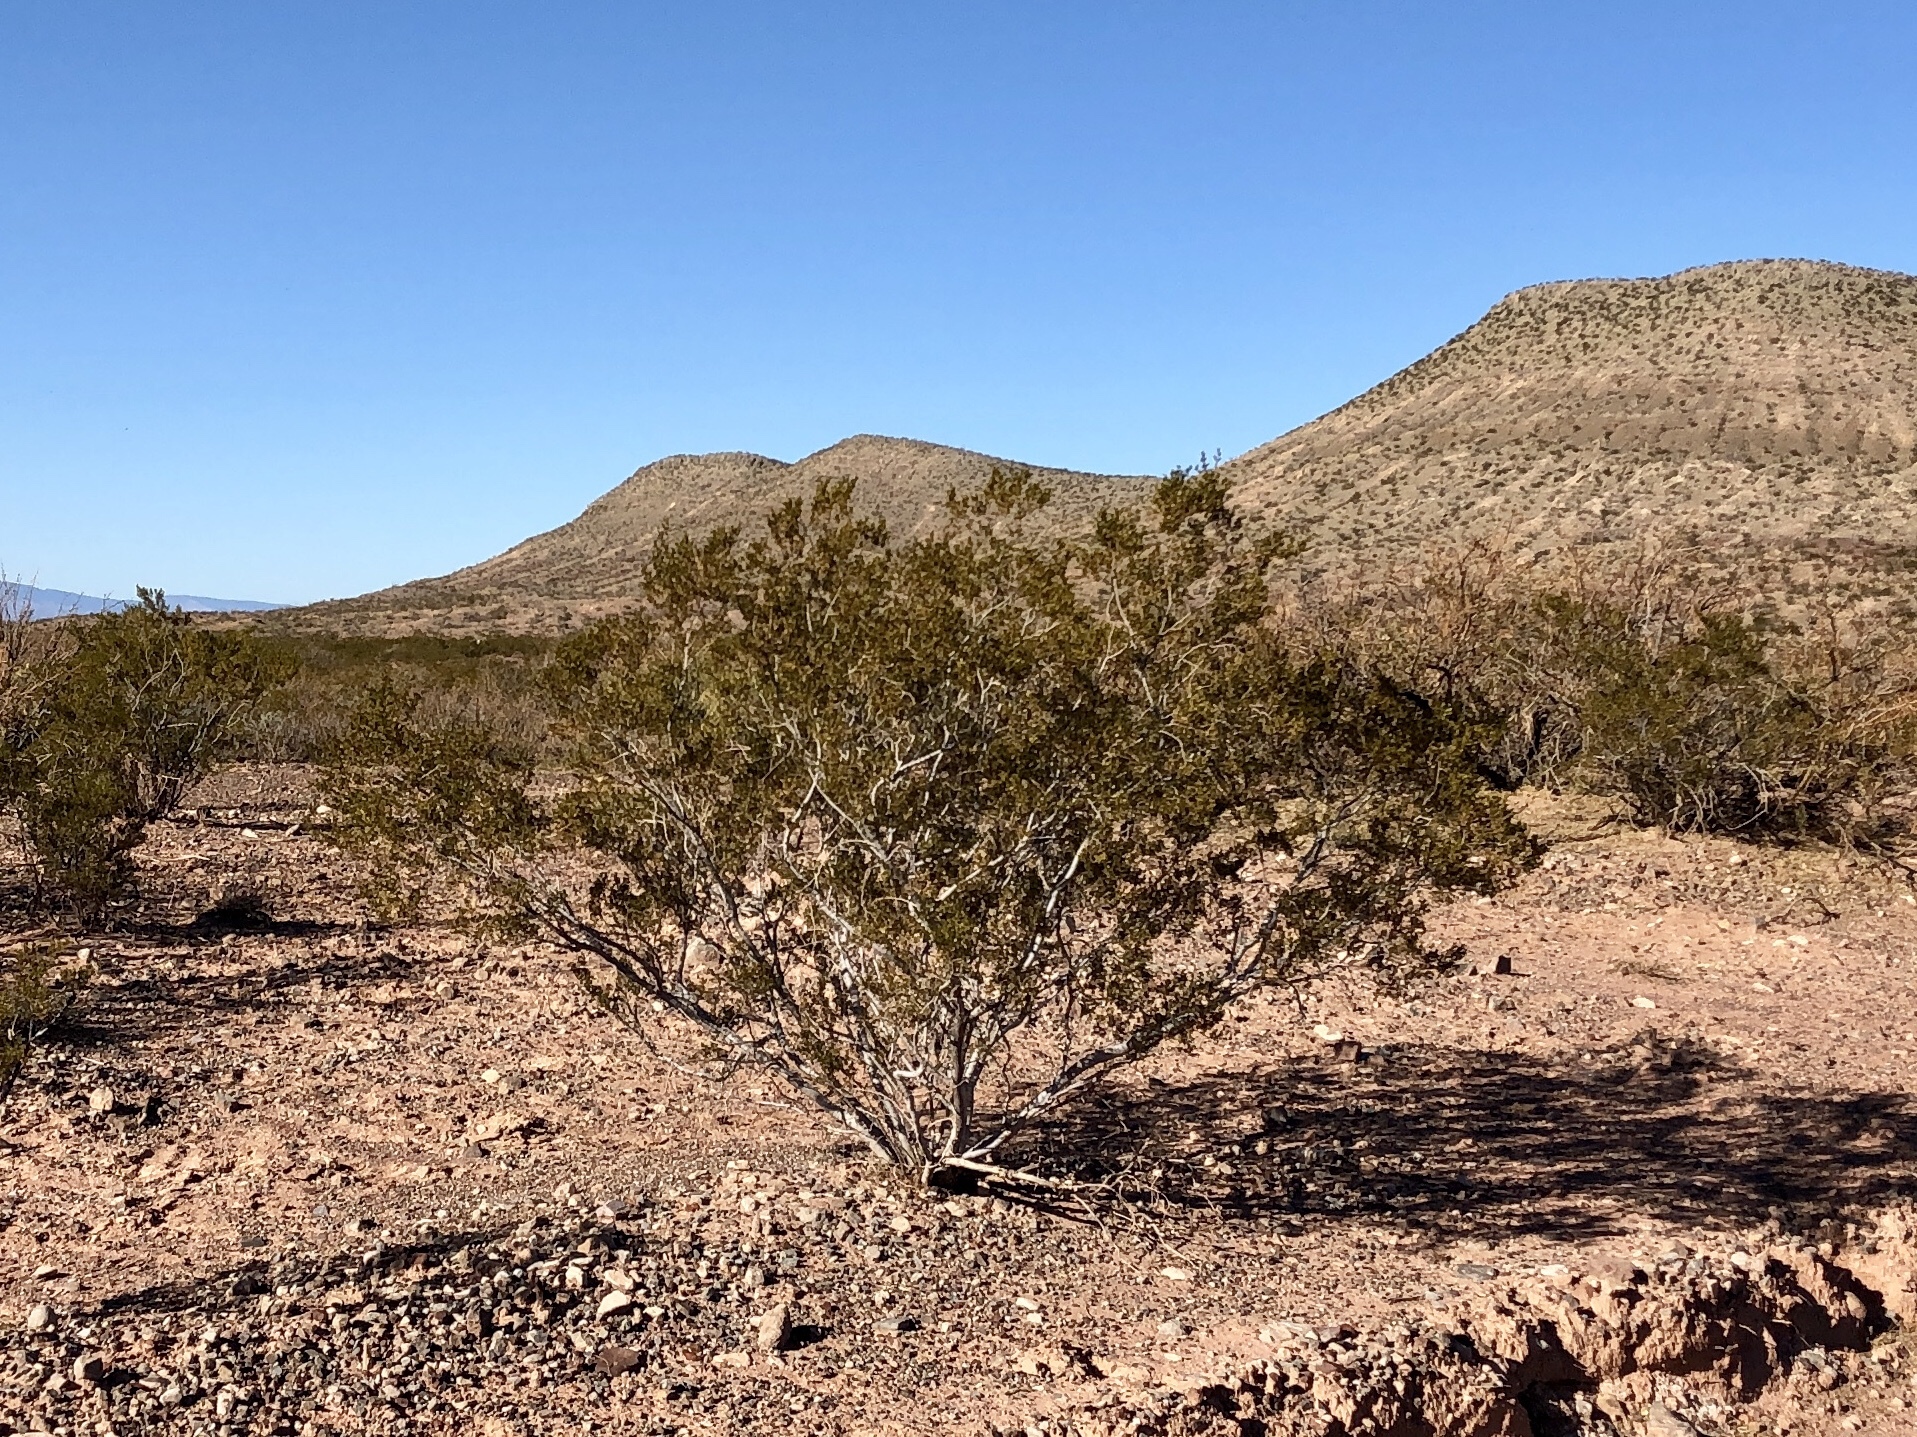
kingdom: Plantae
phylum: Tracheophyta
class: Magnoliopsida
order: Zygophyllales
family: Zygophyllaceae
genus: Larrea
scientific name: Larrea tridentata
